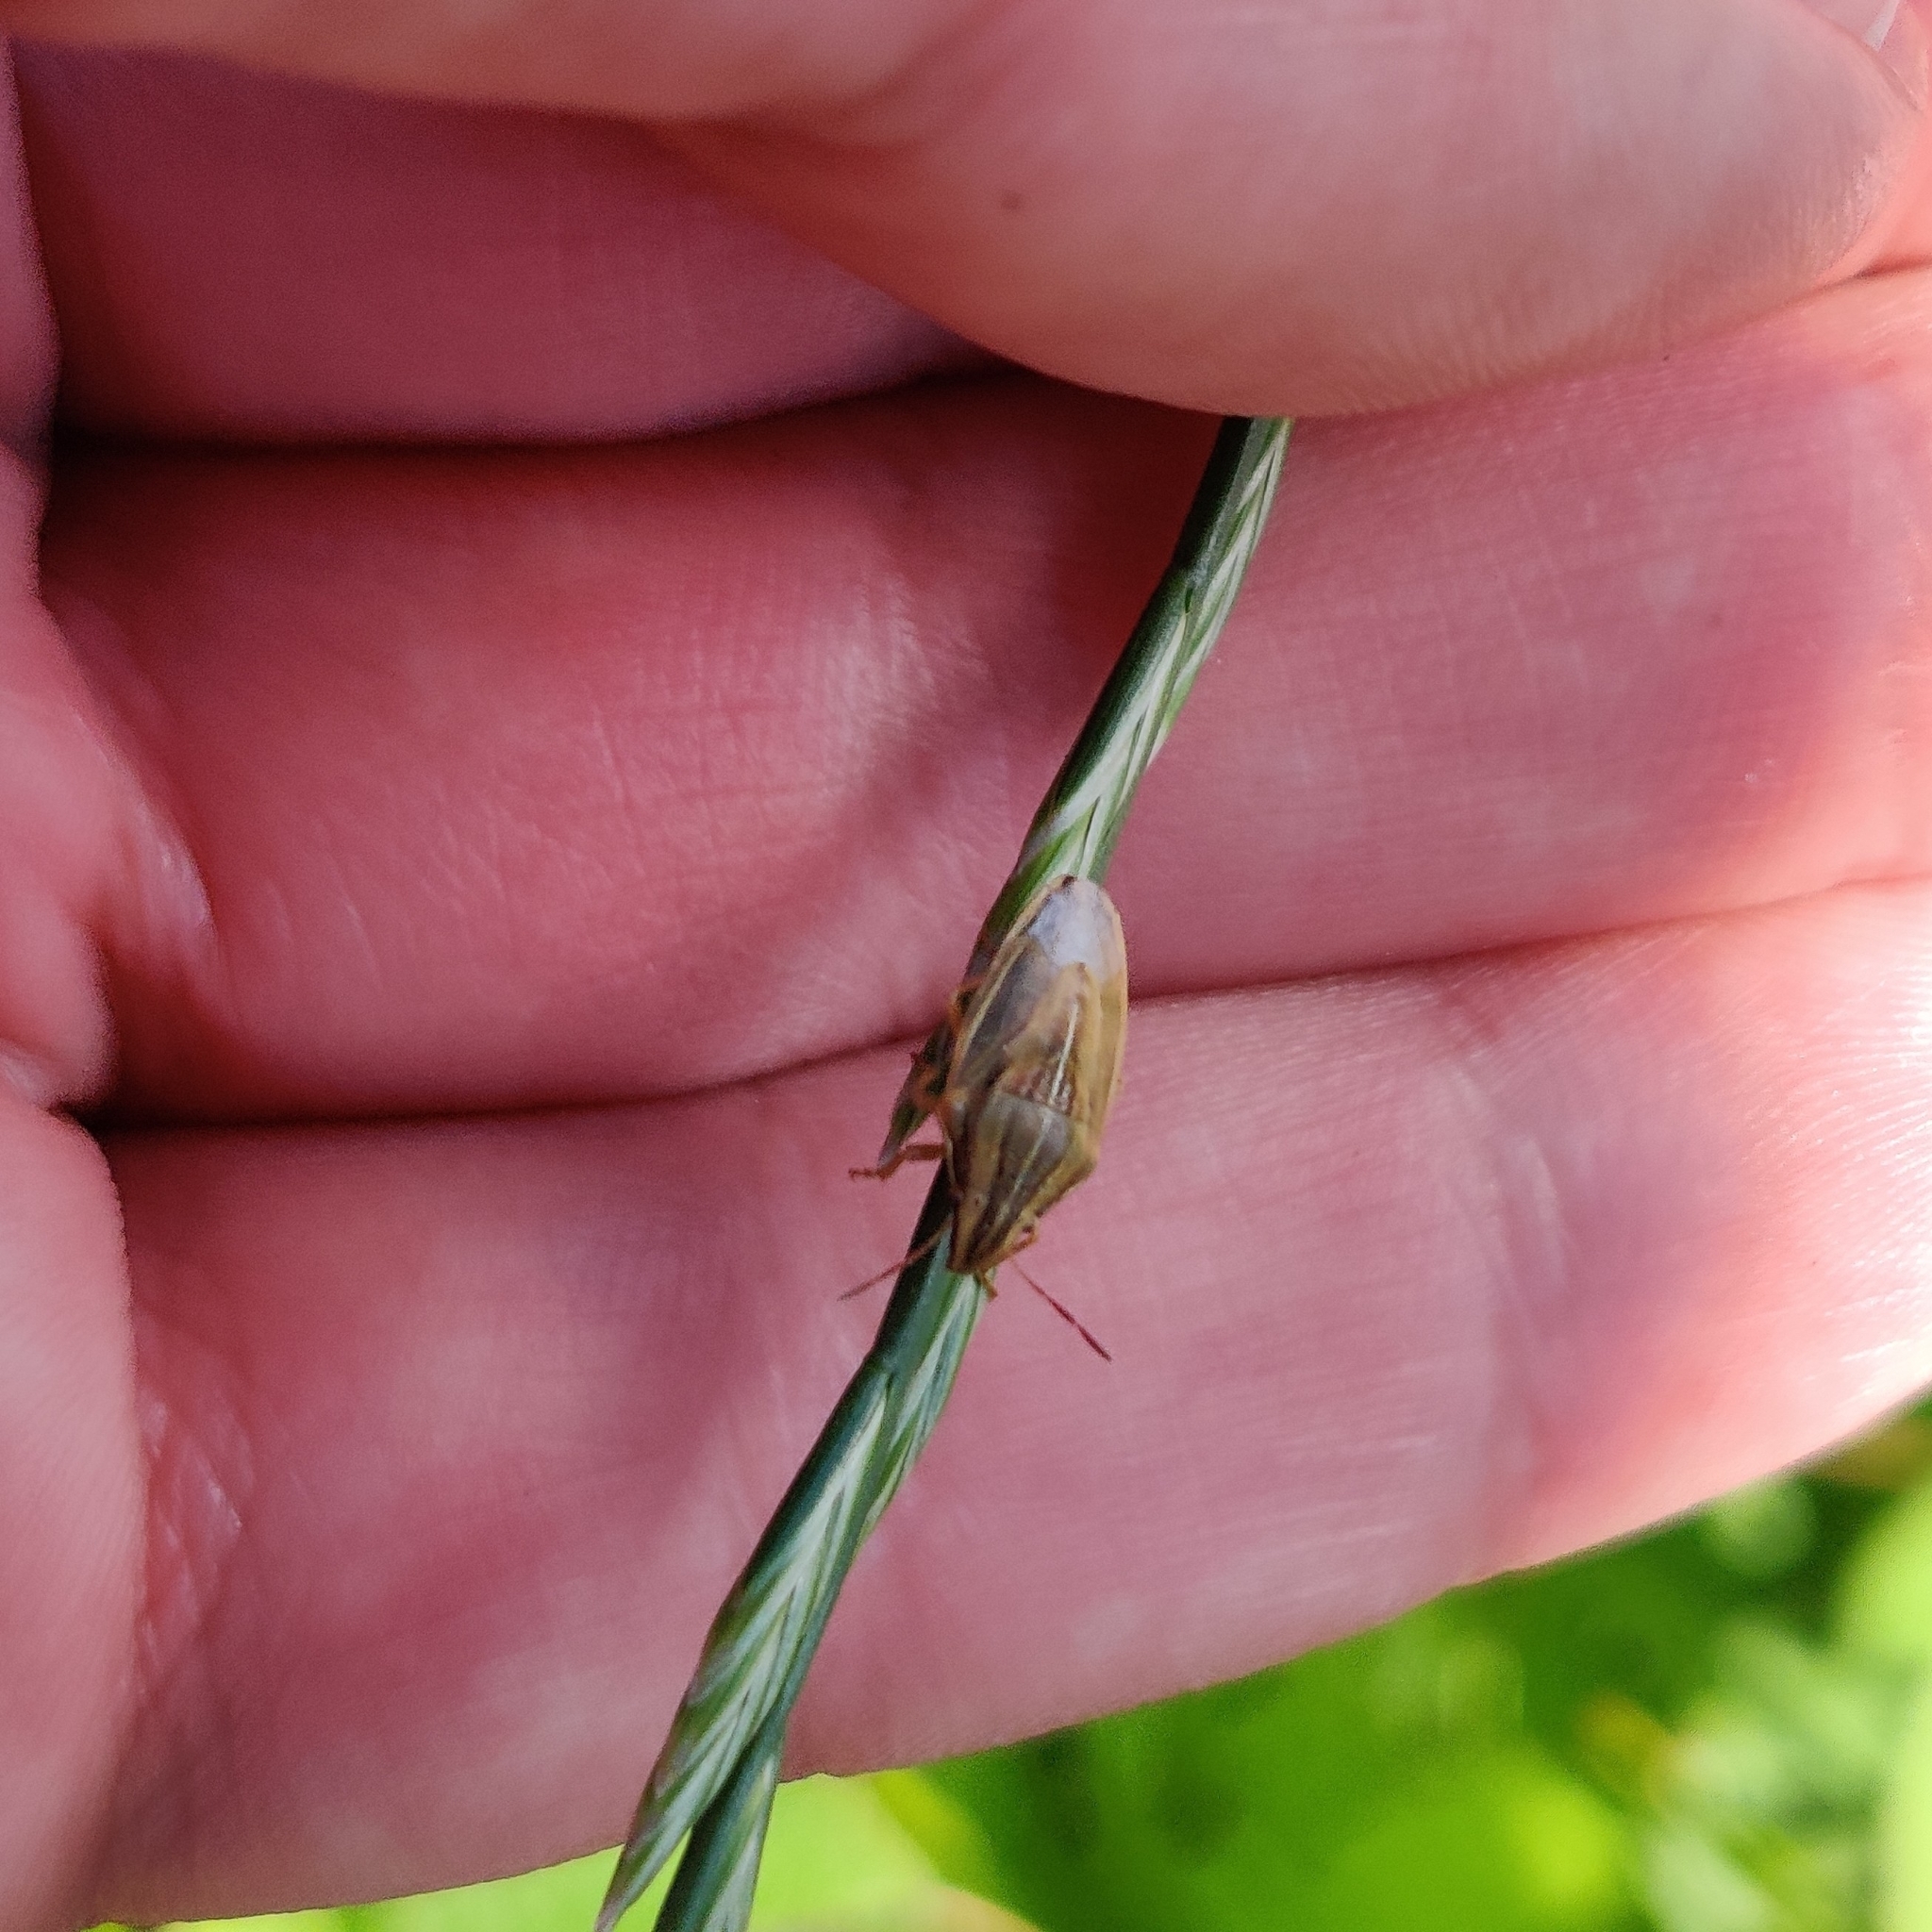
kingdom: Animalia
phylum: Arthropoda
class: Insecta
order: Hemiptera
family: Pentatomidae
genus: Aelia
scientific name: Aelia acuminata
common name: Bishop's mitre
